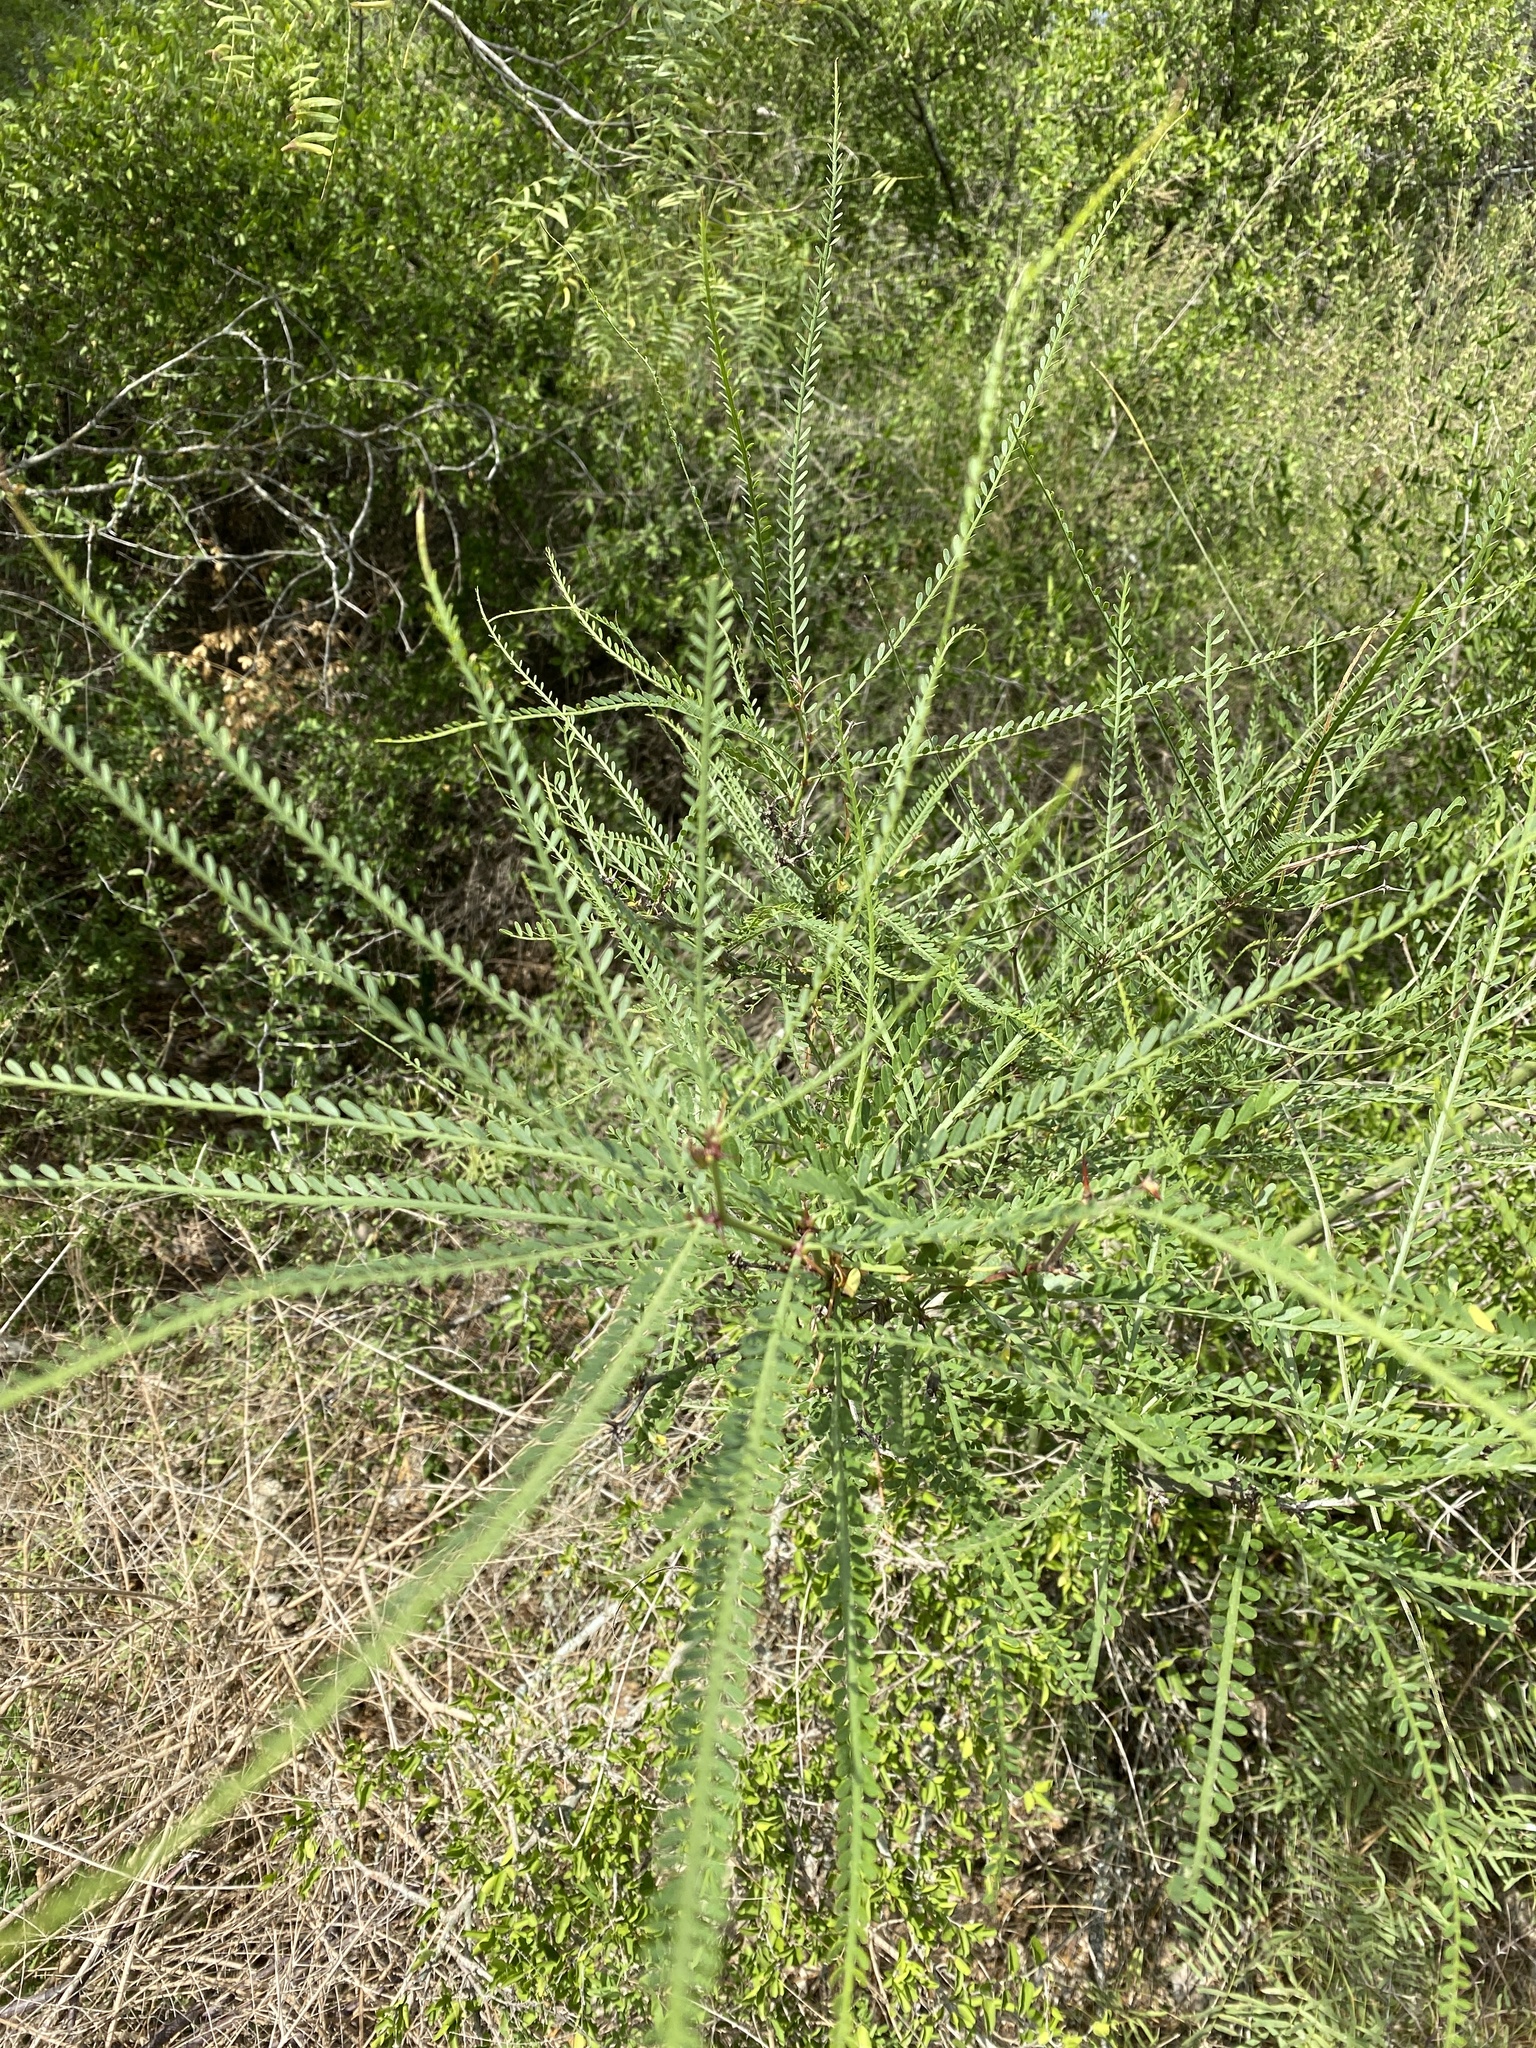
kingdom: Plantae
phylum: Tracheophyta
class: Magnoliopsida
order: Fabales
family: Fabaceae
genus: Parkinsonia
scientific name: Parkinsonia aculeata
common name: Jerusalem thorn
